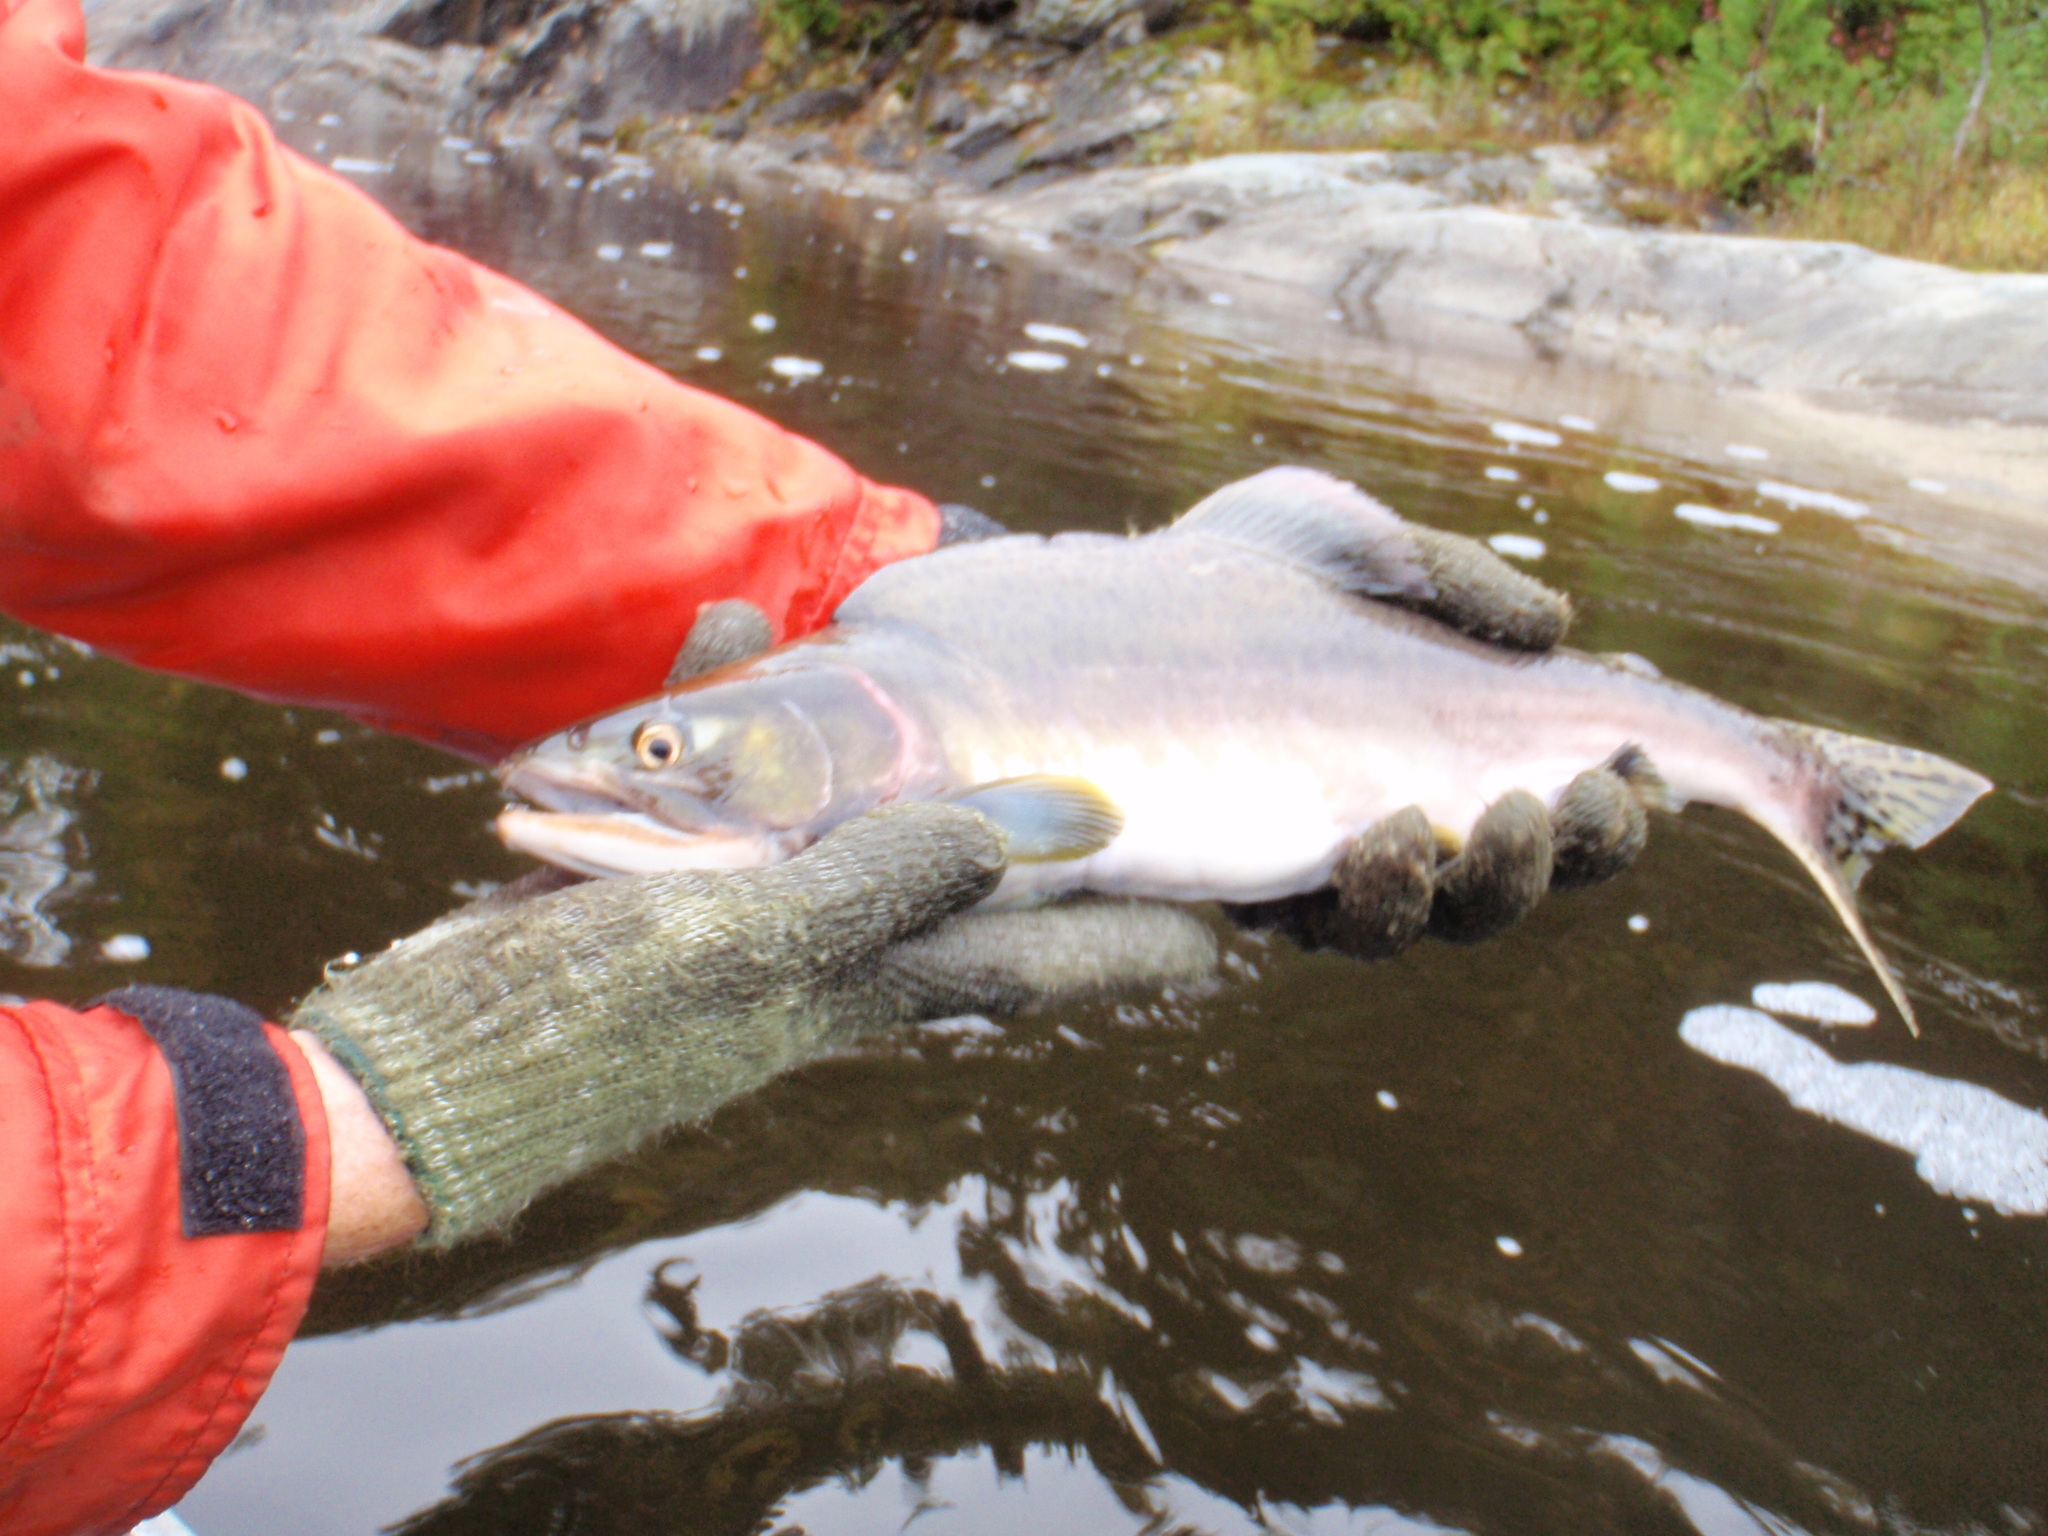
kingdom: Animalia
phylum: Chordata
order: Salmoniformes
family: Salmonidae
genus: Oncorhynchus
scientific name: Oncorhynchus gorbuscha
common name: Humpback salmon
